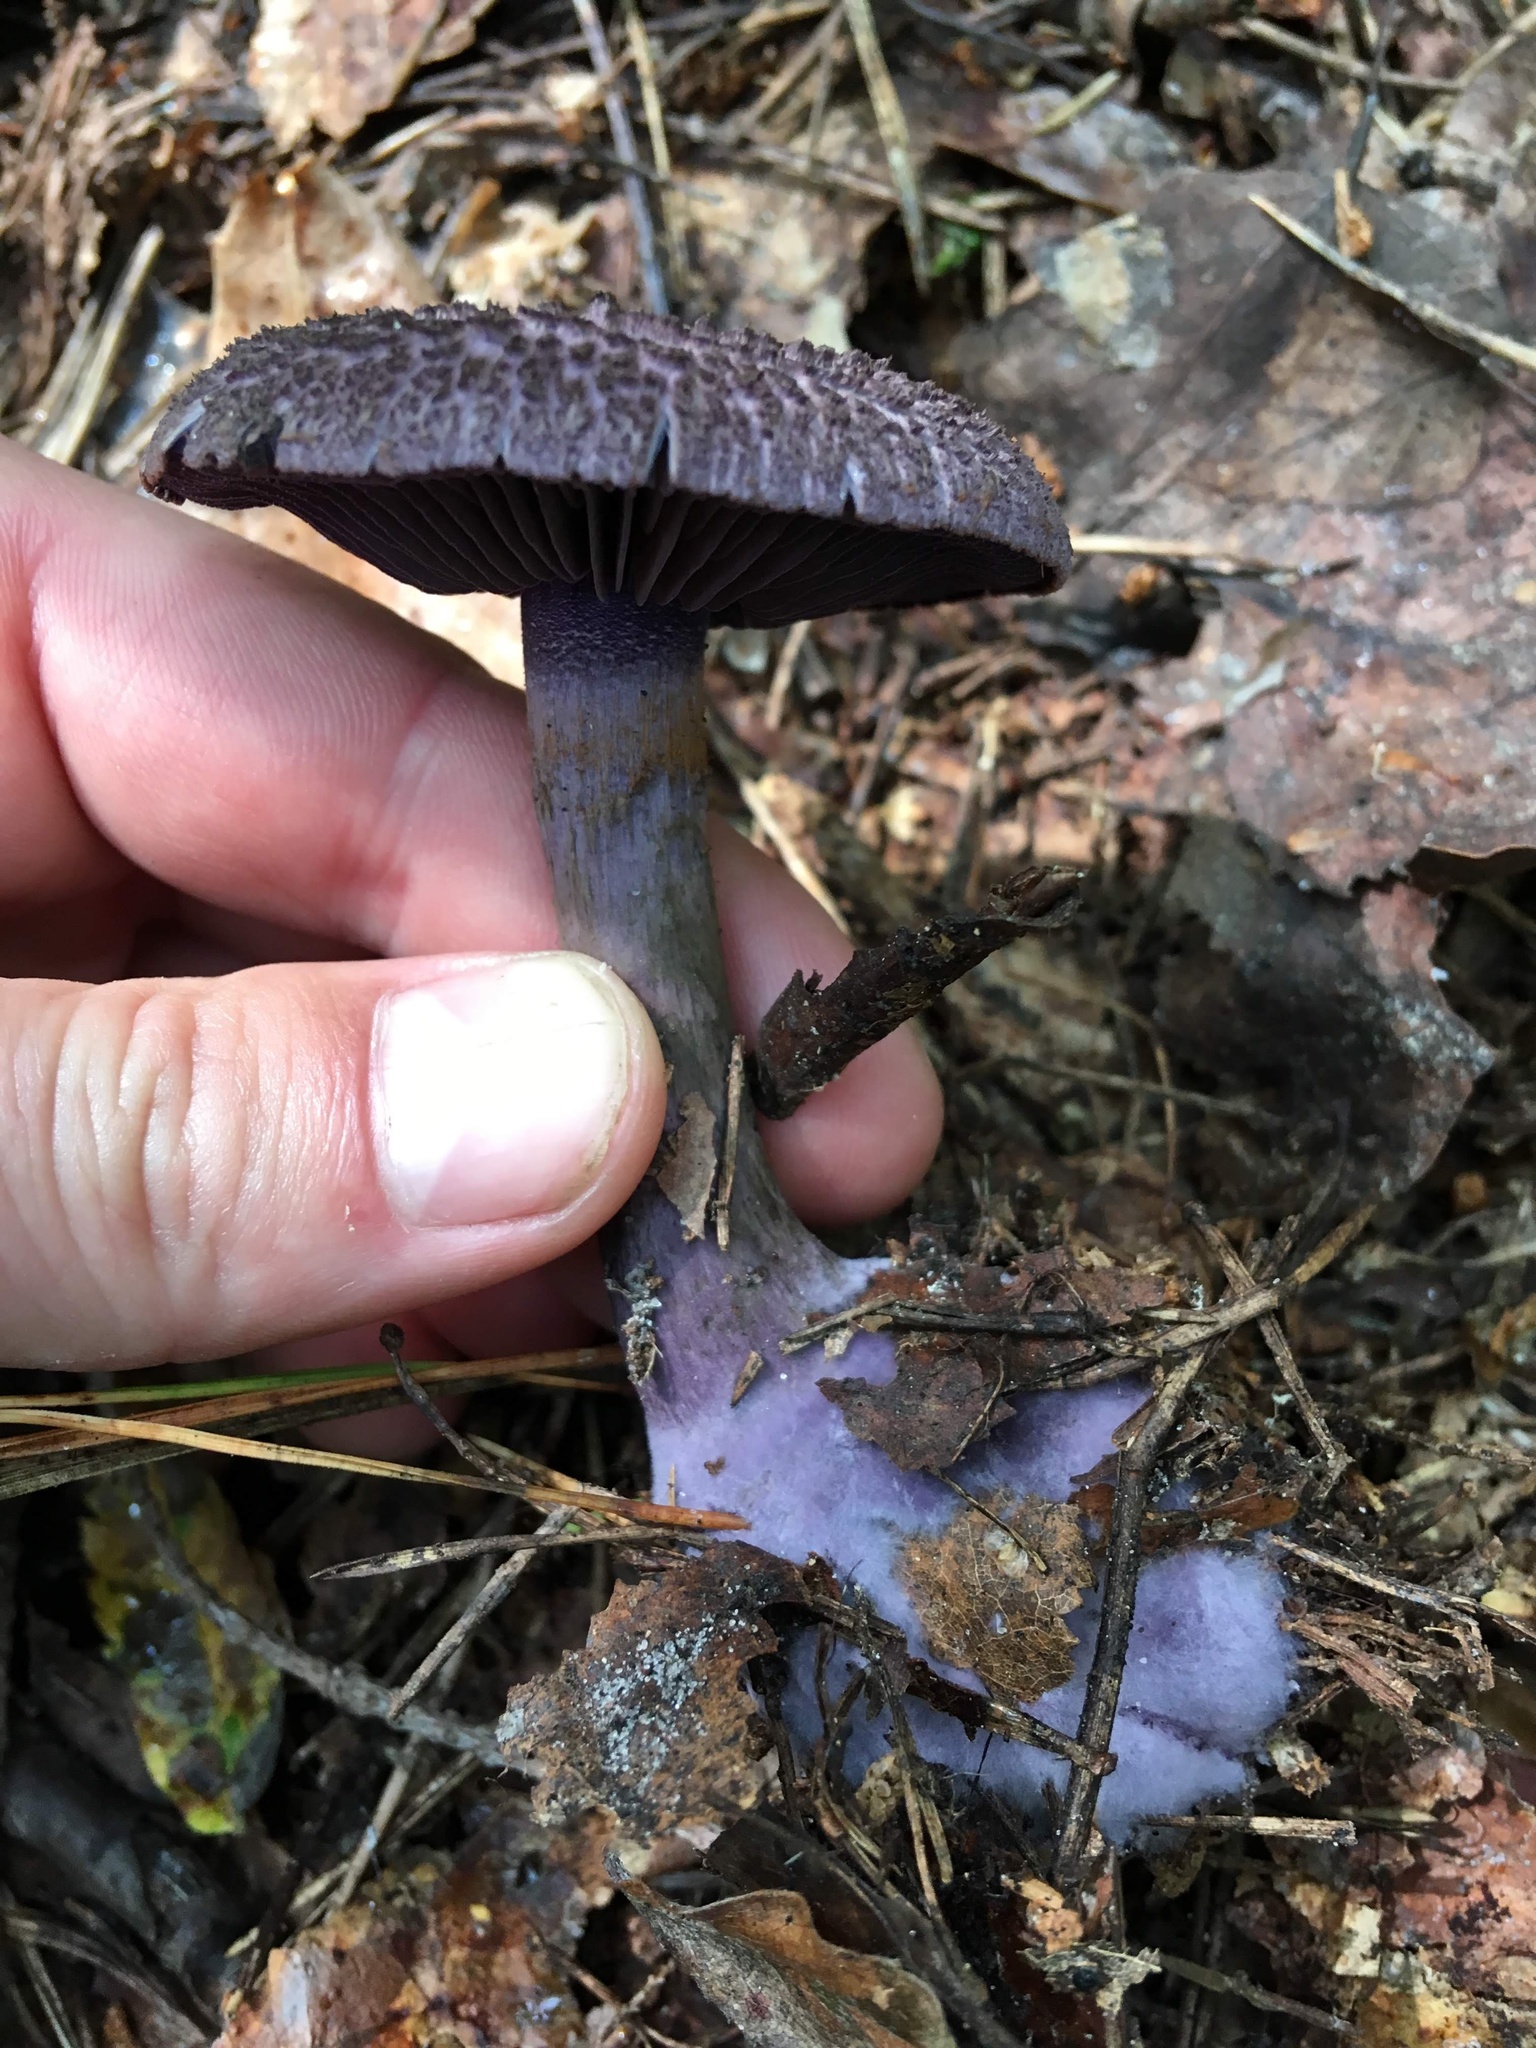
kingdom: Fungi
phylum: Basidiomycota
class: Agaricomycetes
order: Agaricales
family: Cortinariaceae
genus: Cortinarius
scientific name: Cortinarius violaceus
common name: Violet webcap
